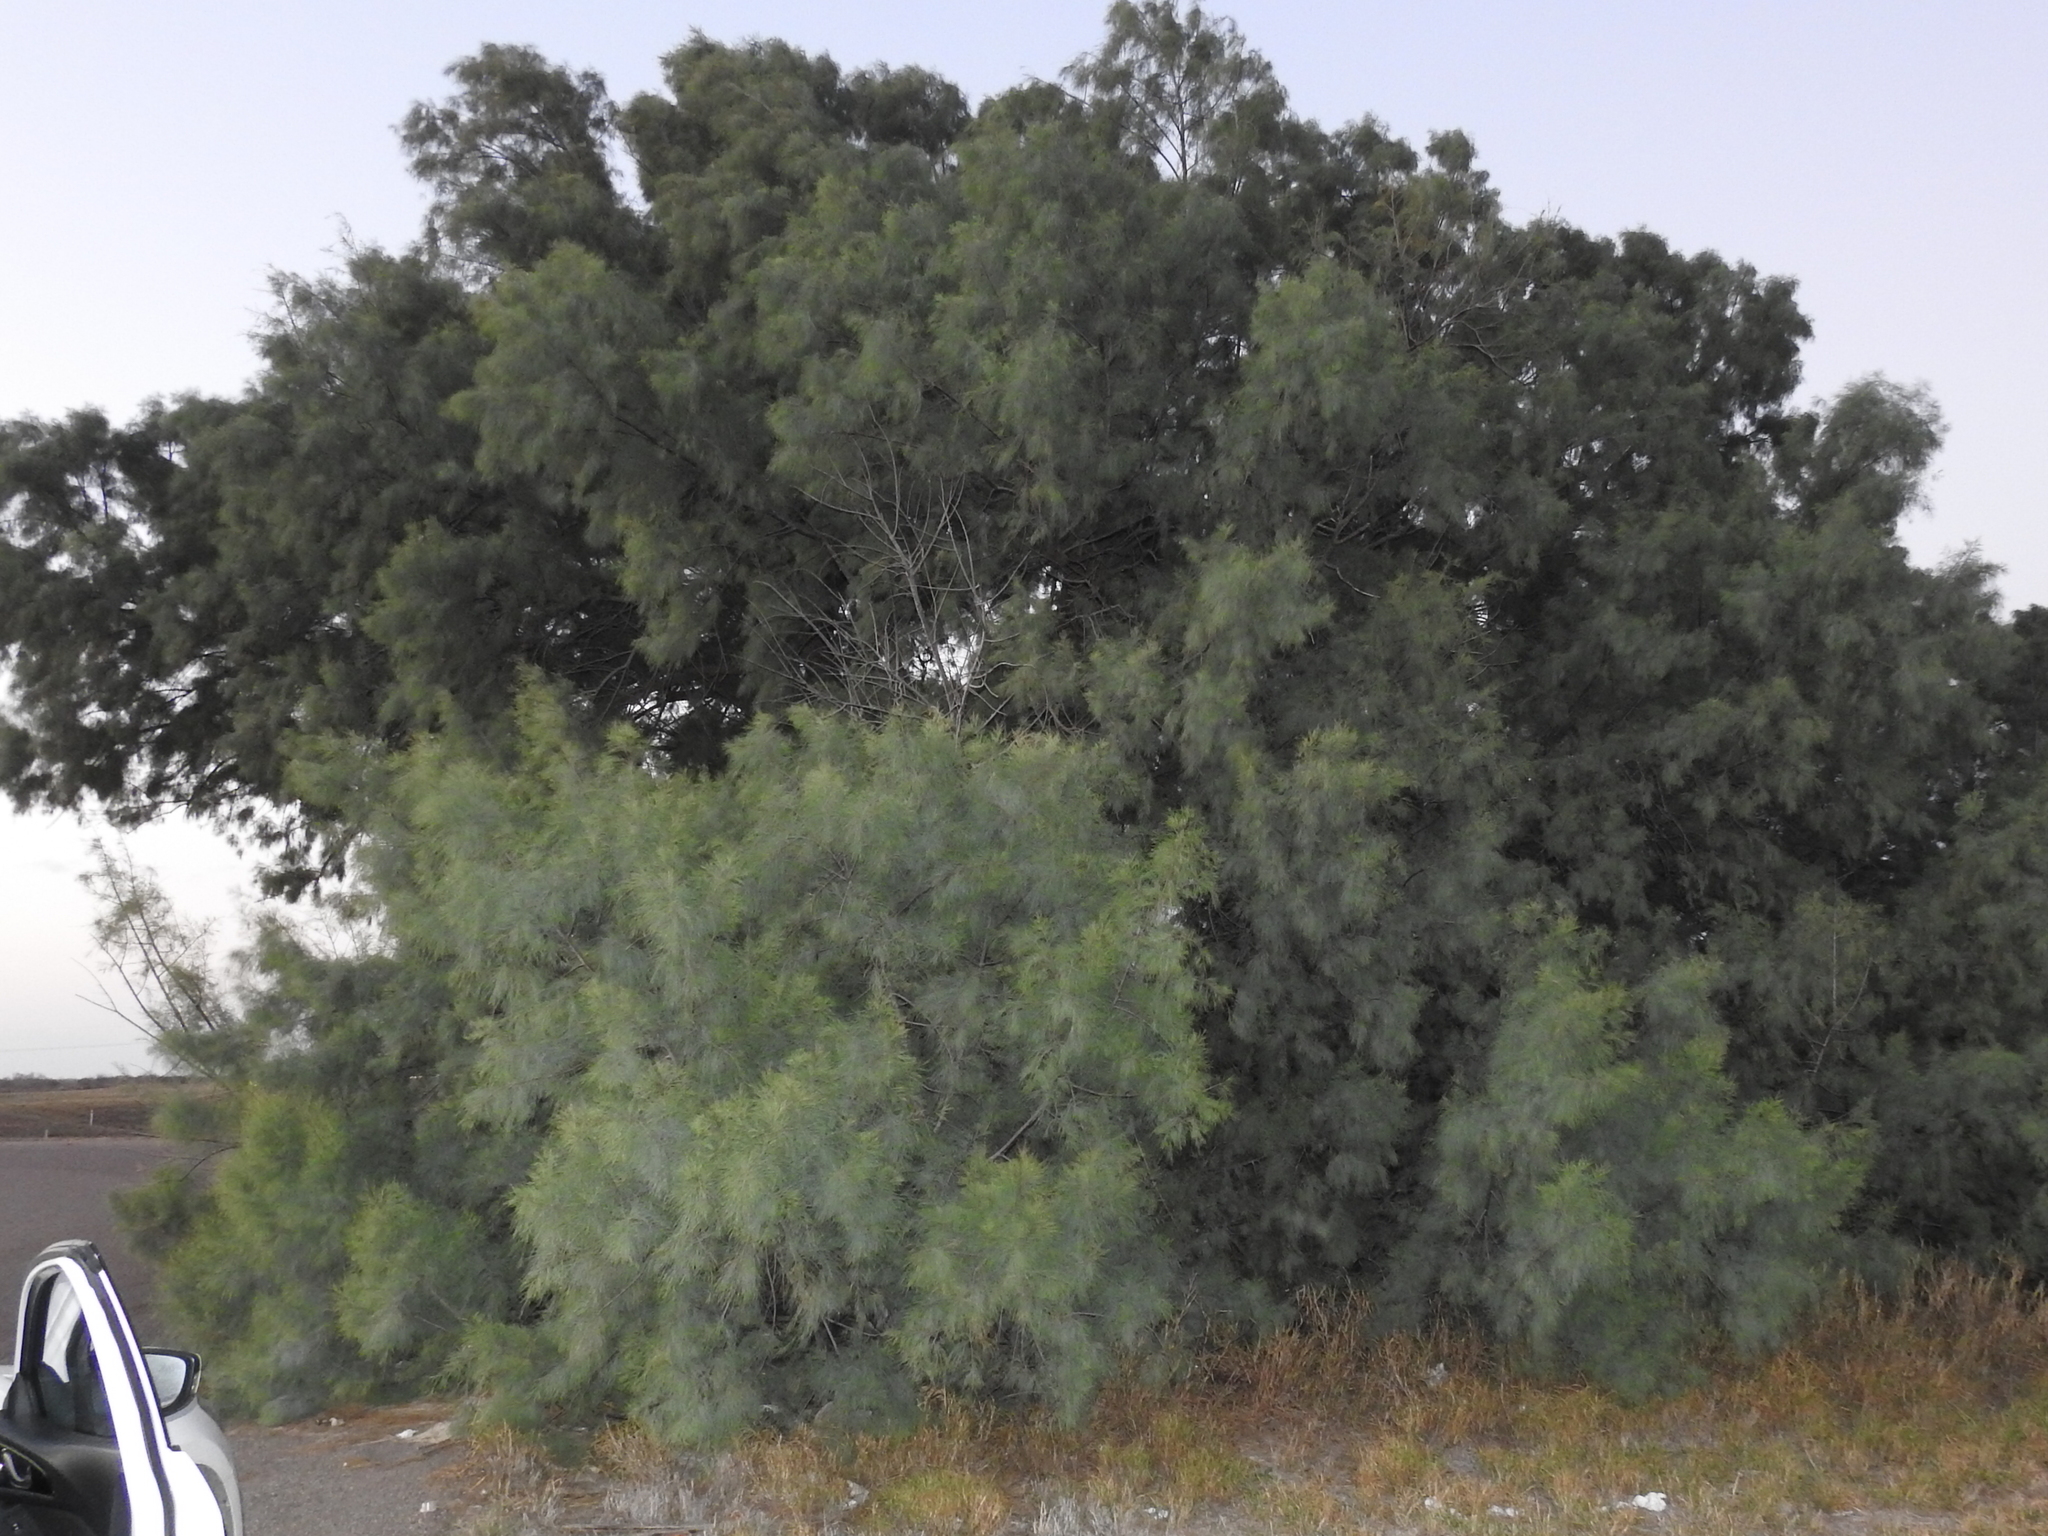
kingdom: Plantae
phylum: Tracheophyta
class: Magnoliopsida
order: Caryophyllales
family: Tamaricaceae
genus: Tamarix
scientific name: Tamarix aphylla
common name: Athel tamarisk
